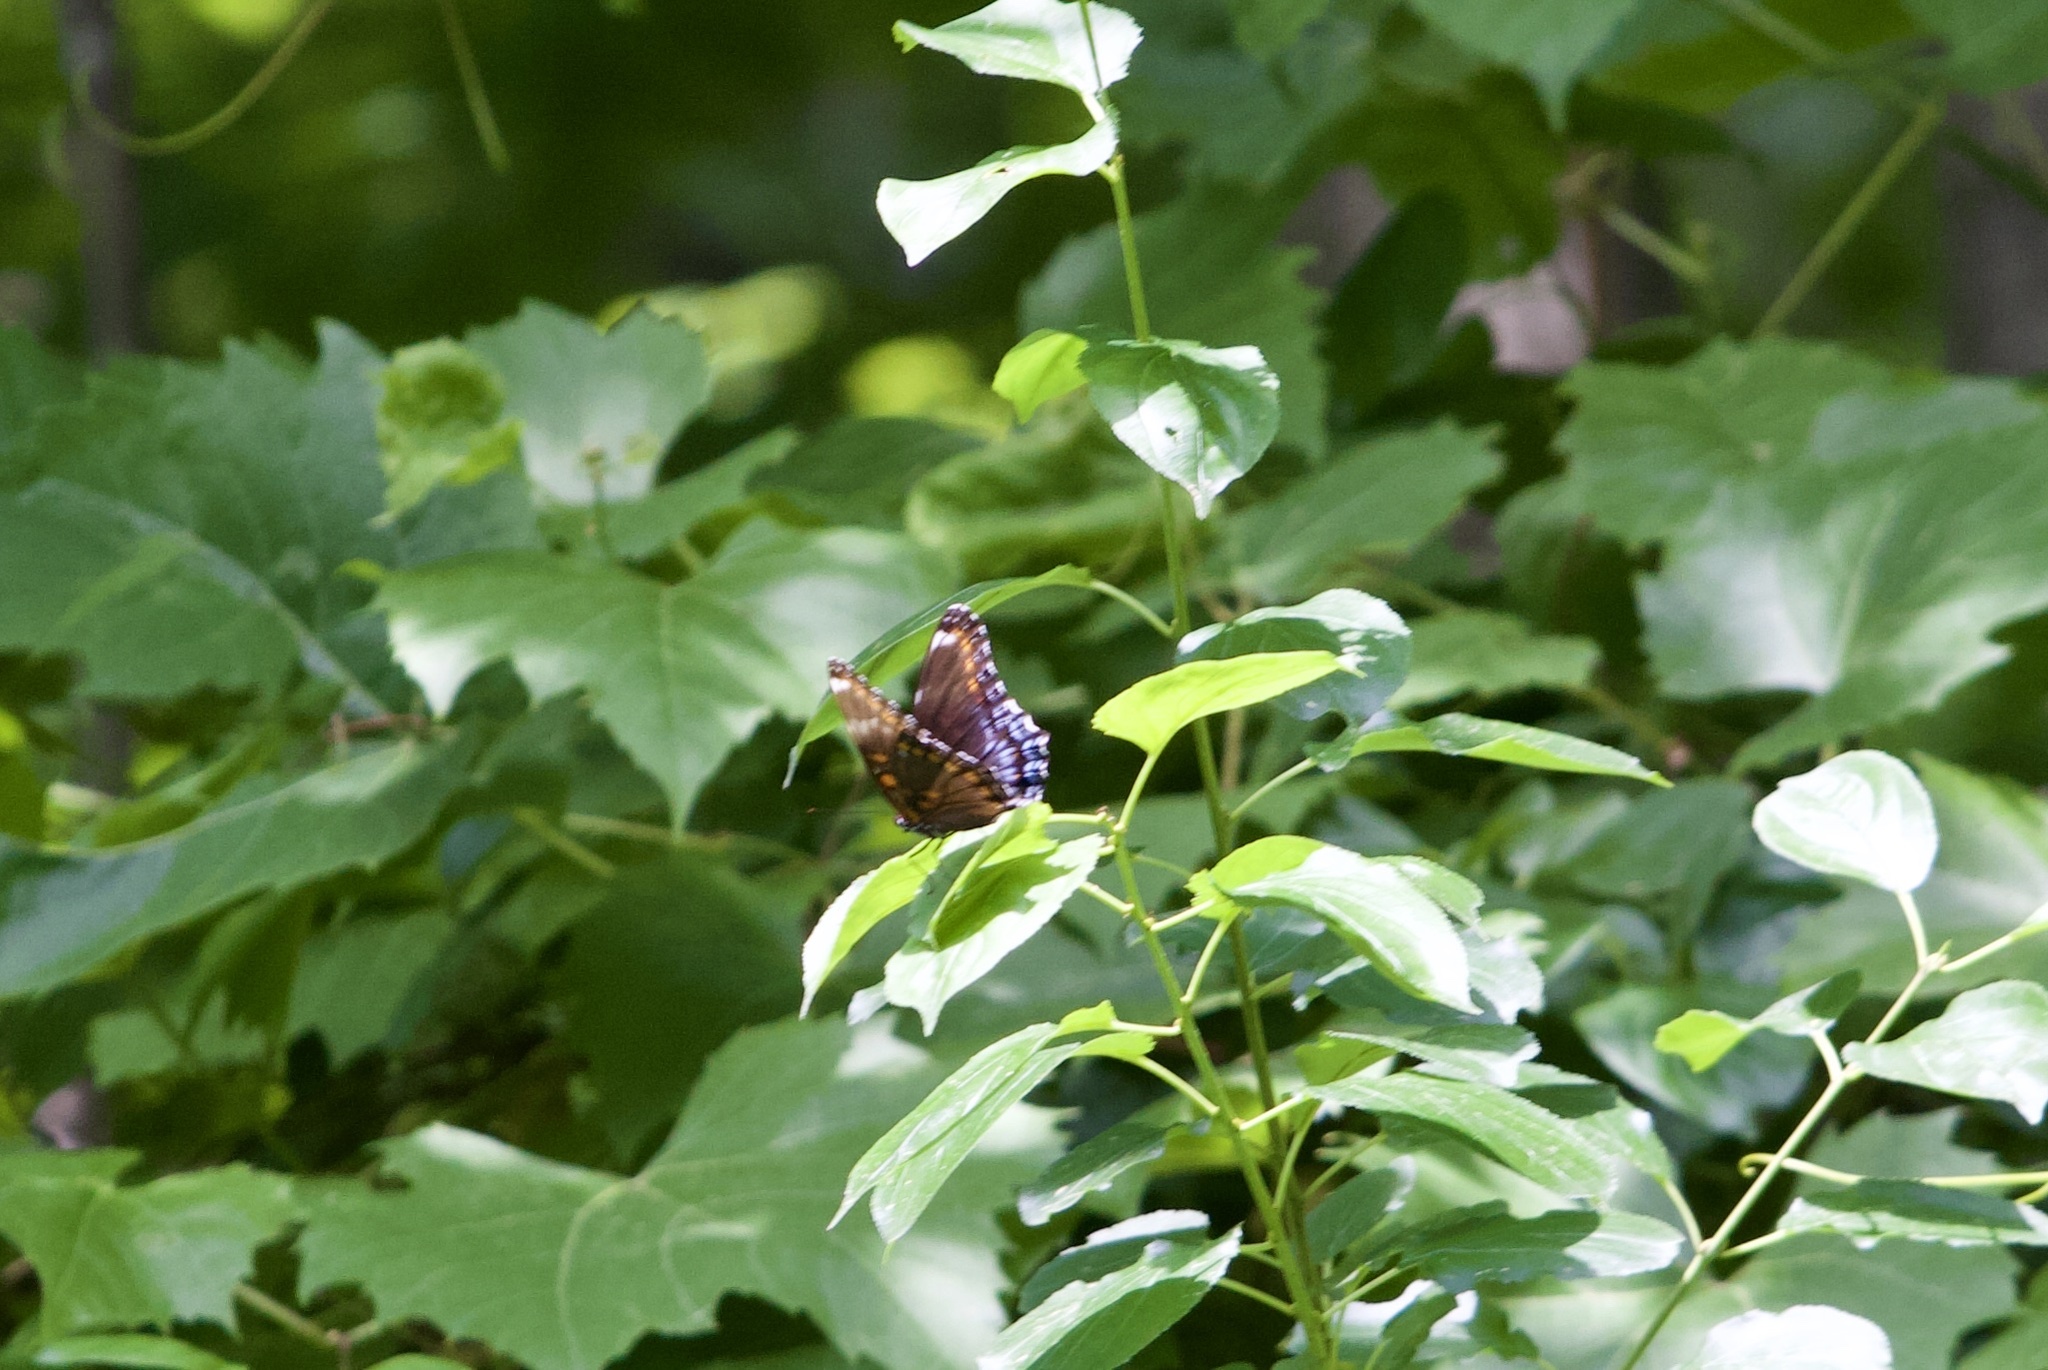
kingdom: Animalia
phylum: Arthropoda
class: Insecta
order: Lepidoptera
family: Nymphalidae
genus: Limenitis
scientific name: Limenitis arthemis
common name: Red-spotted admiral
